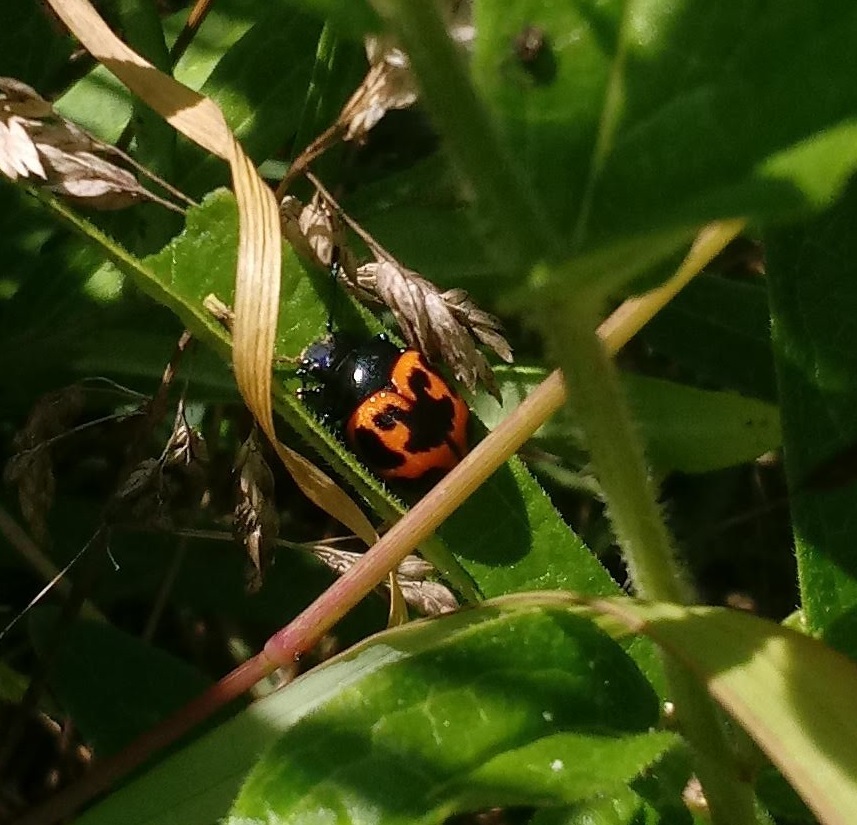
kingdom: Animalia
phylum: Arthropoda
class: Insecta
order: Coleoptera
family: Chrysomelidae
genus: Labidomera
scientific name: Labidomera clivicollis
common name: Swamp milkweed leaf beetle
